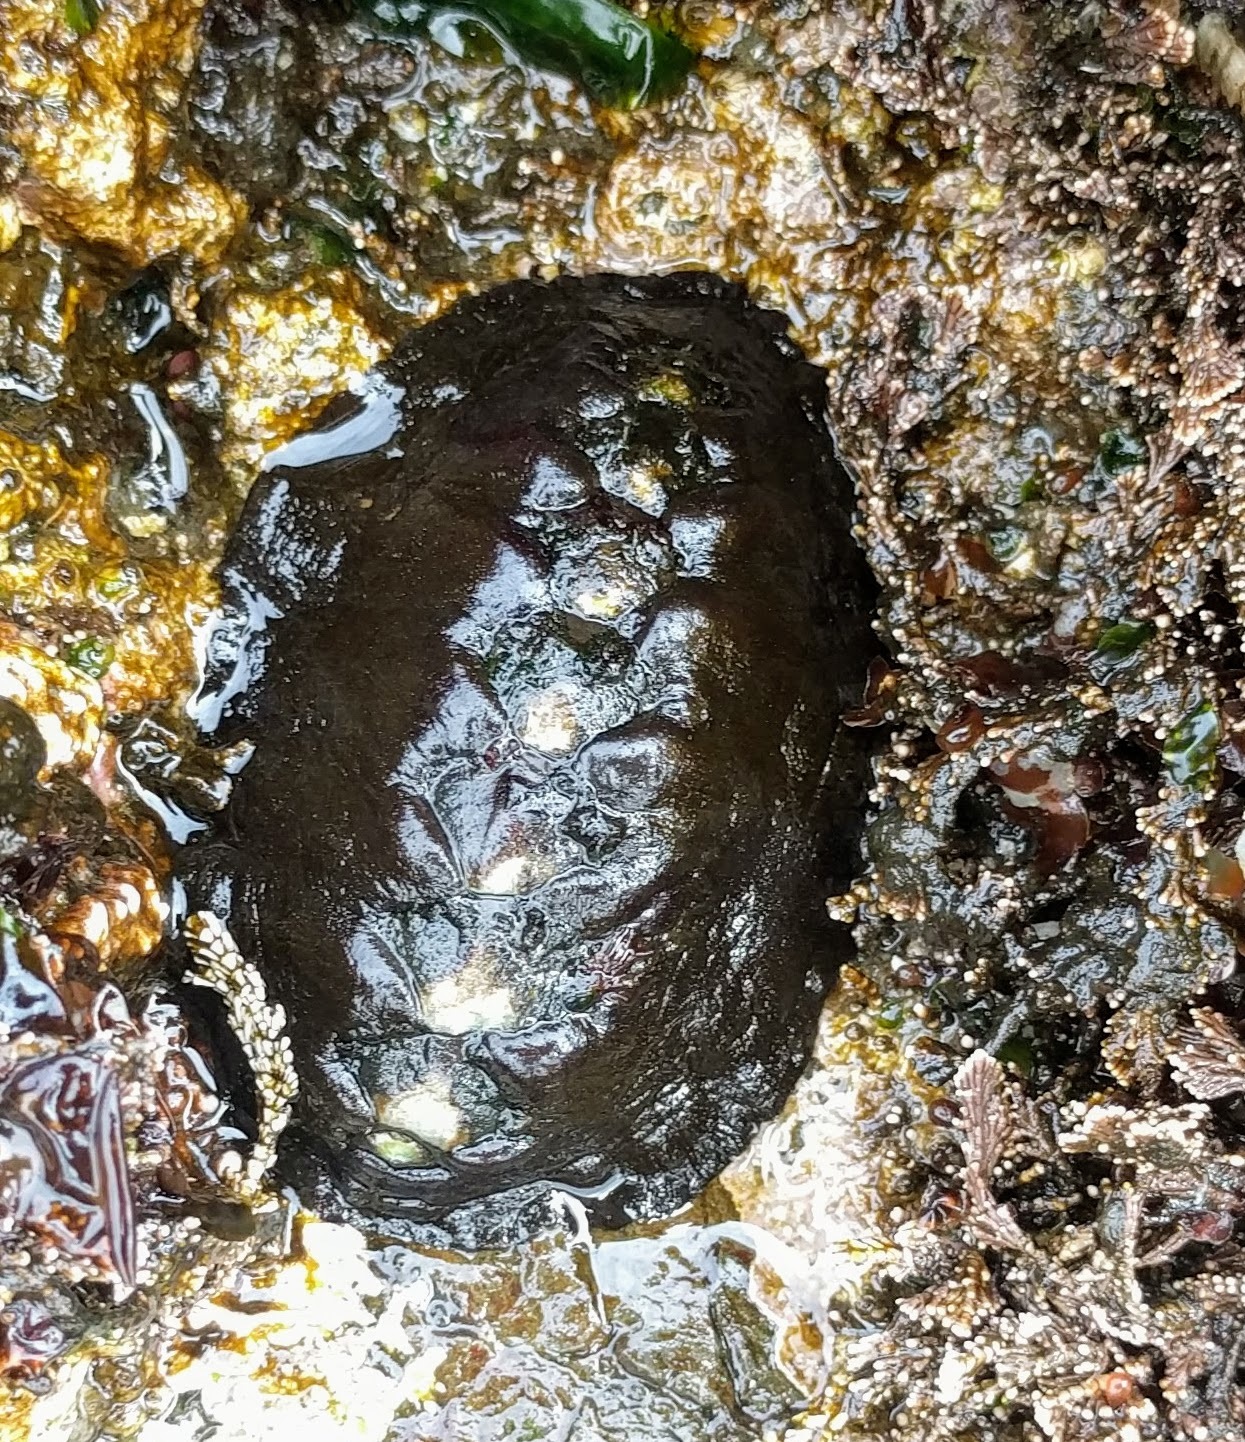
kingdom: Animalia
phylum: Mollusca
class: Polyplacophora
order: Chitonida
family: Mopaliidae
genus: Katharina
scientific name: Katharina tunicata
